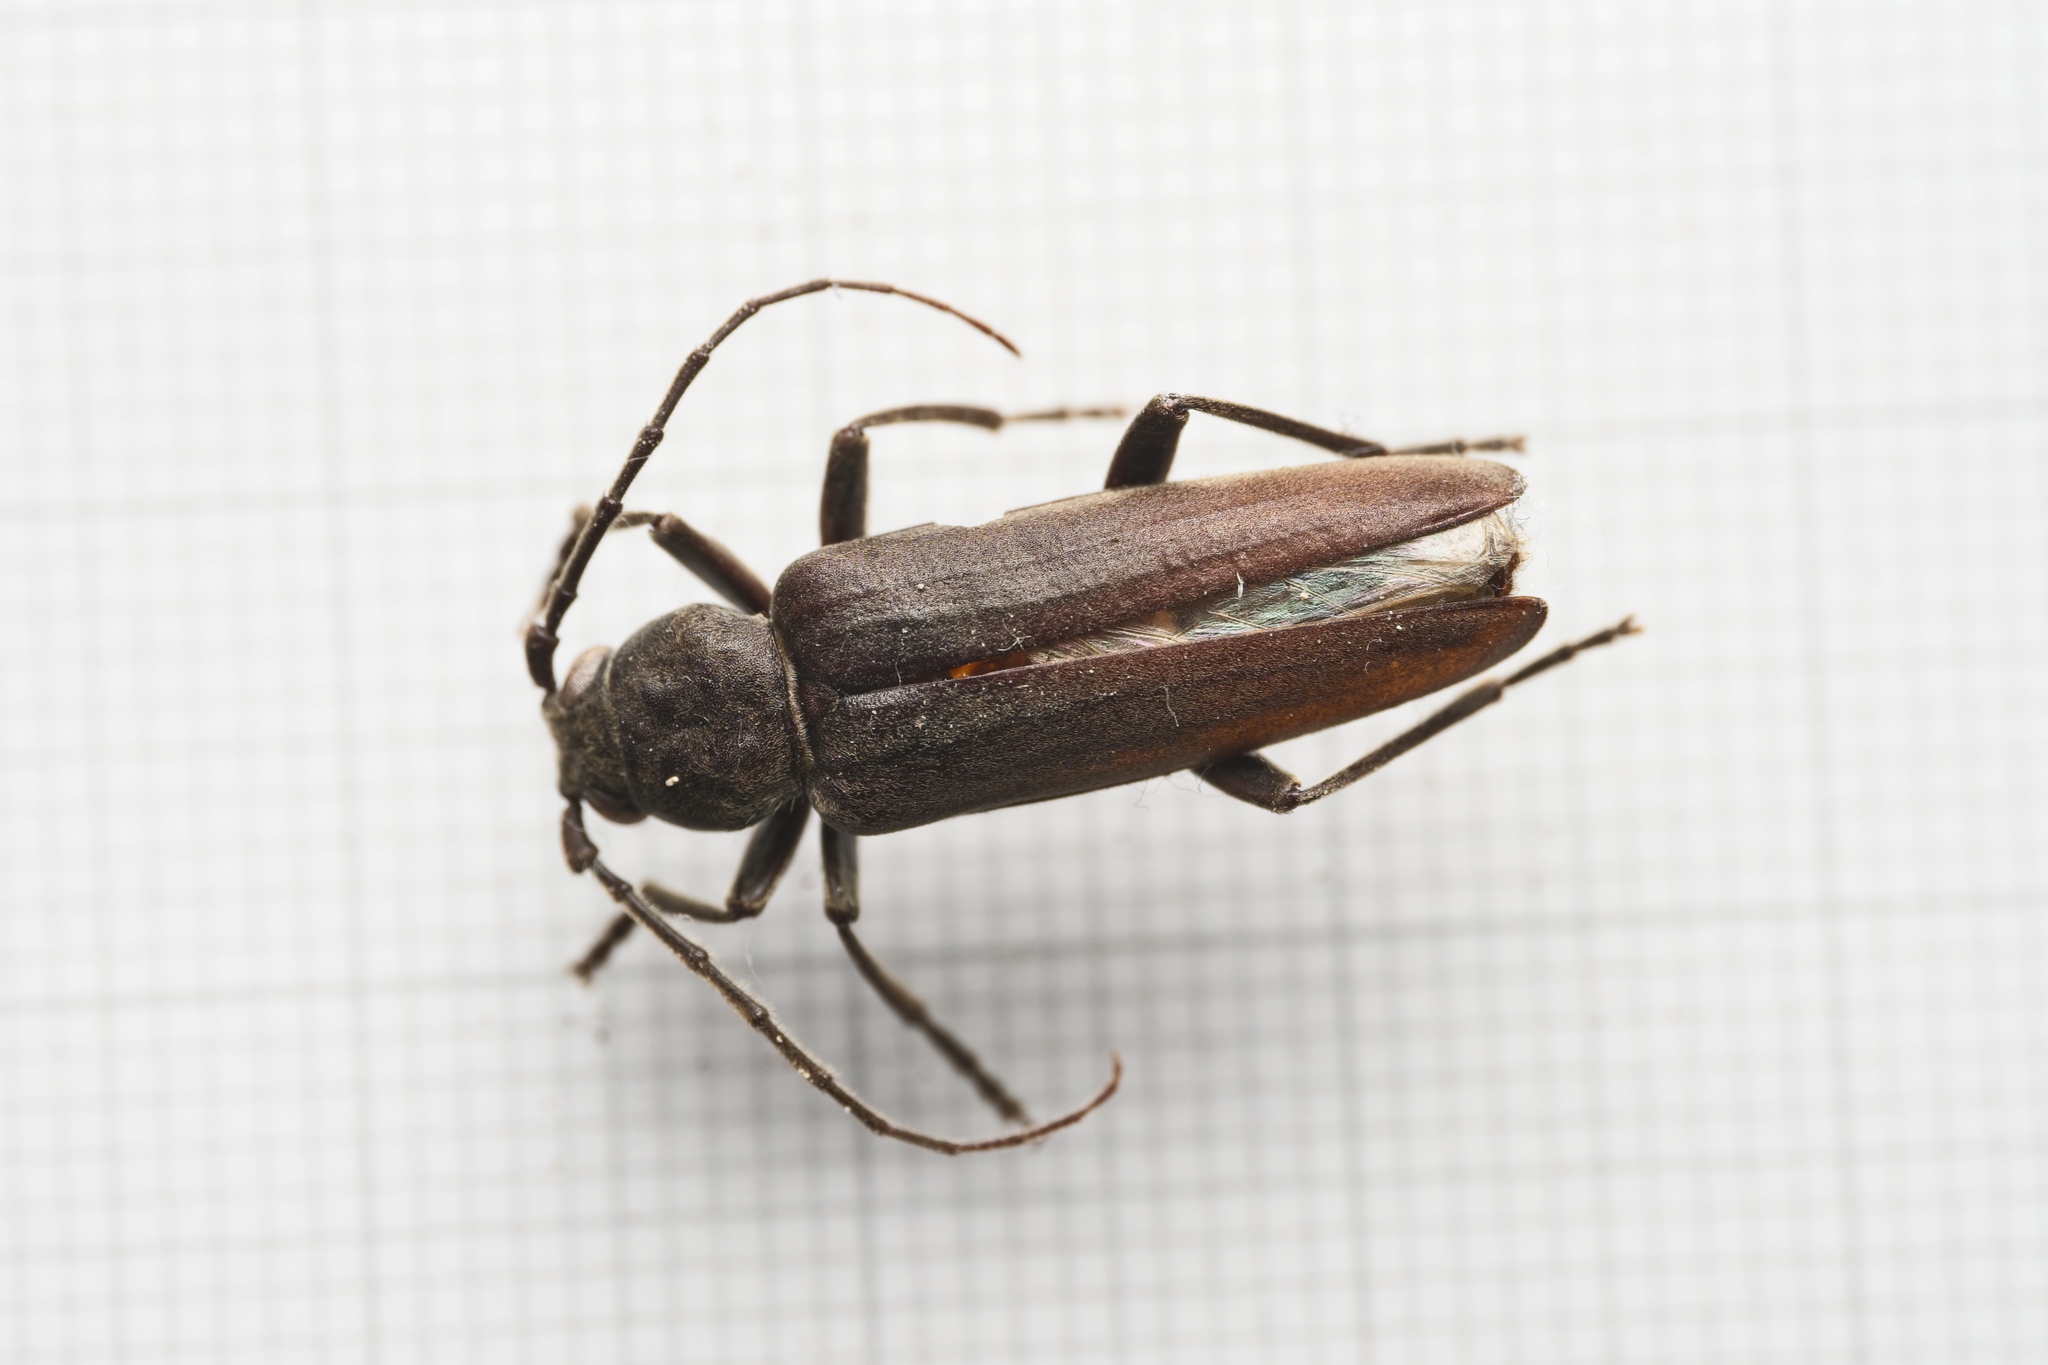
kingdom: Animalia
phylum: Arthropoda
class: Insecta
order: Coleoptera
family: Cerambycidae
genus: Arhopalus
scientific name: Arhopalus ferus
